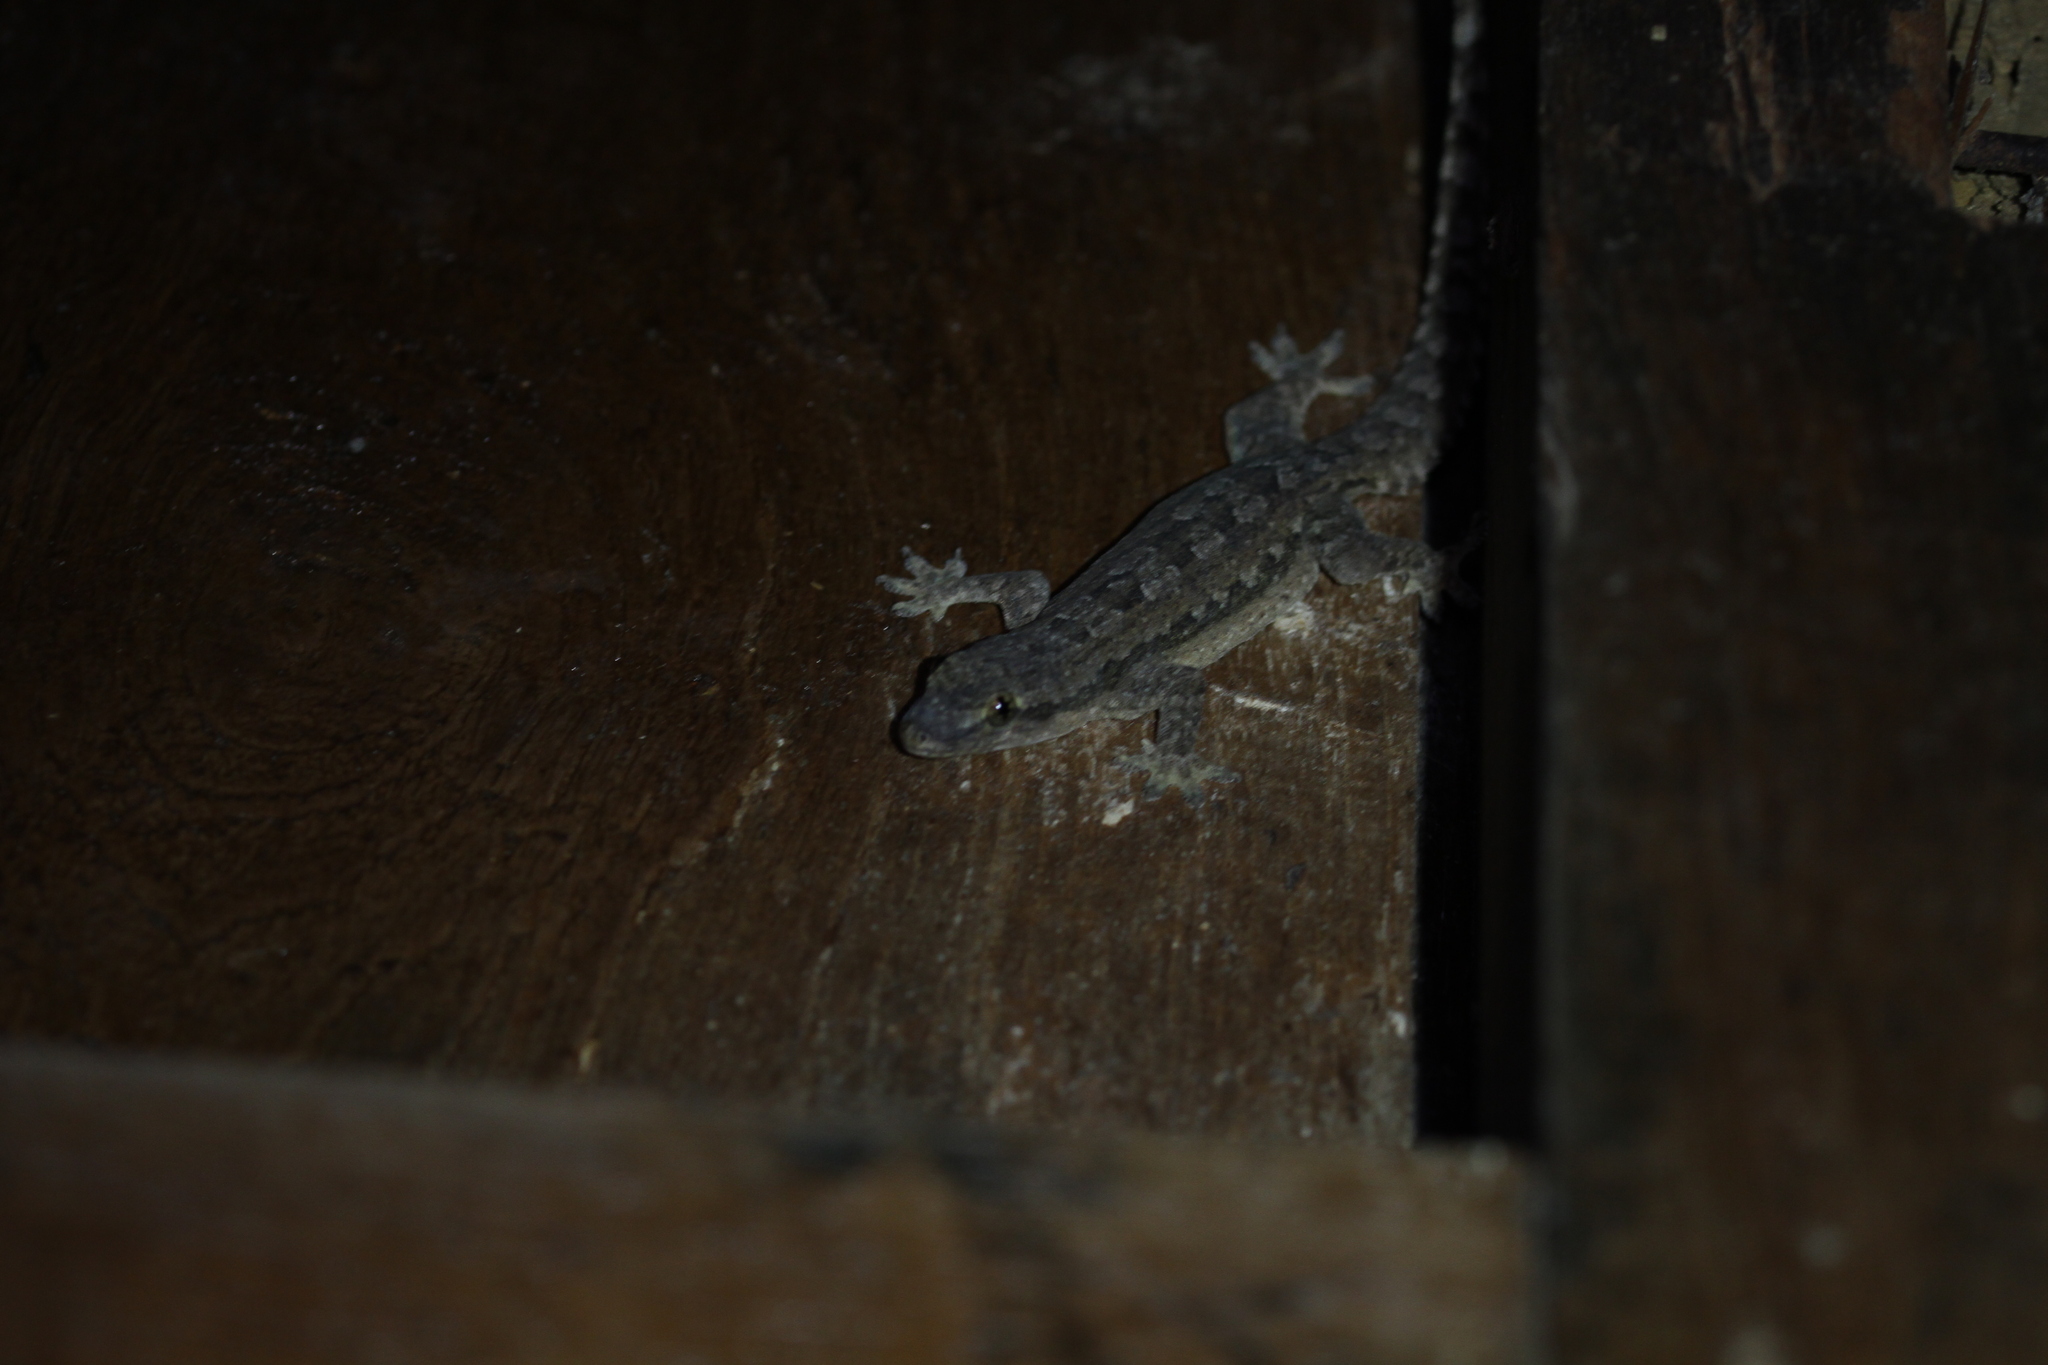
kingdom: Animalia
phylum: Chordata
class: Squamata
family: Gekkonidae
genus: Hemidactylus
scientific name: Hemidactylus platyurus
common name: Flat-tailed house gecko
